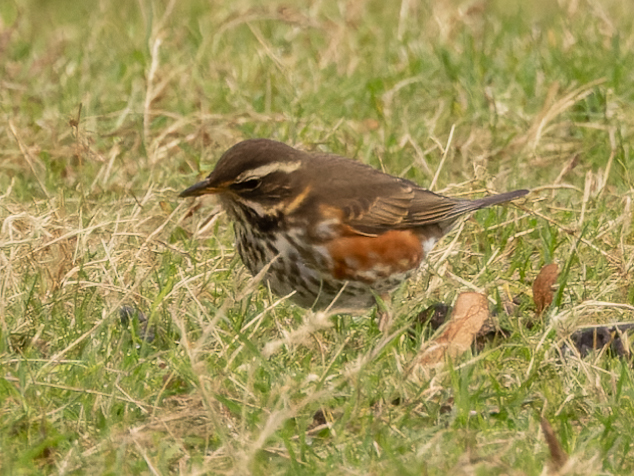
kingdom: Animalia
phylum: Chordata
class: Aves
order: Passeriformes
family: Turdidae
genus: Turdus
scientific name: Turdus iliacus
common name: Redwing
